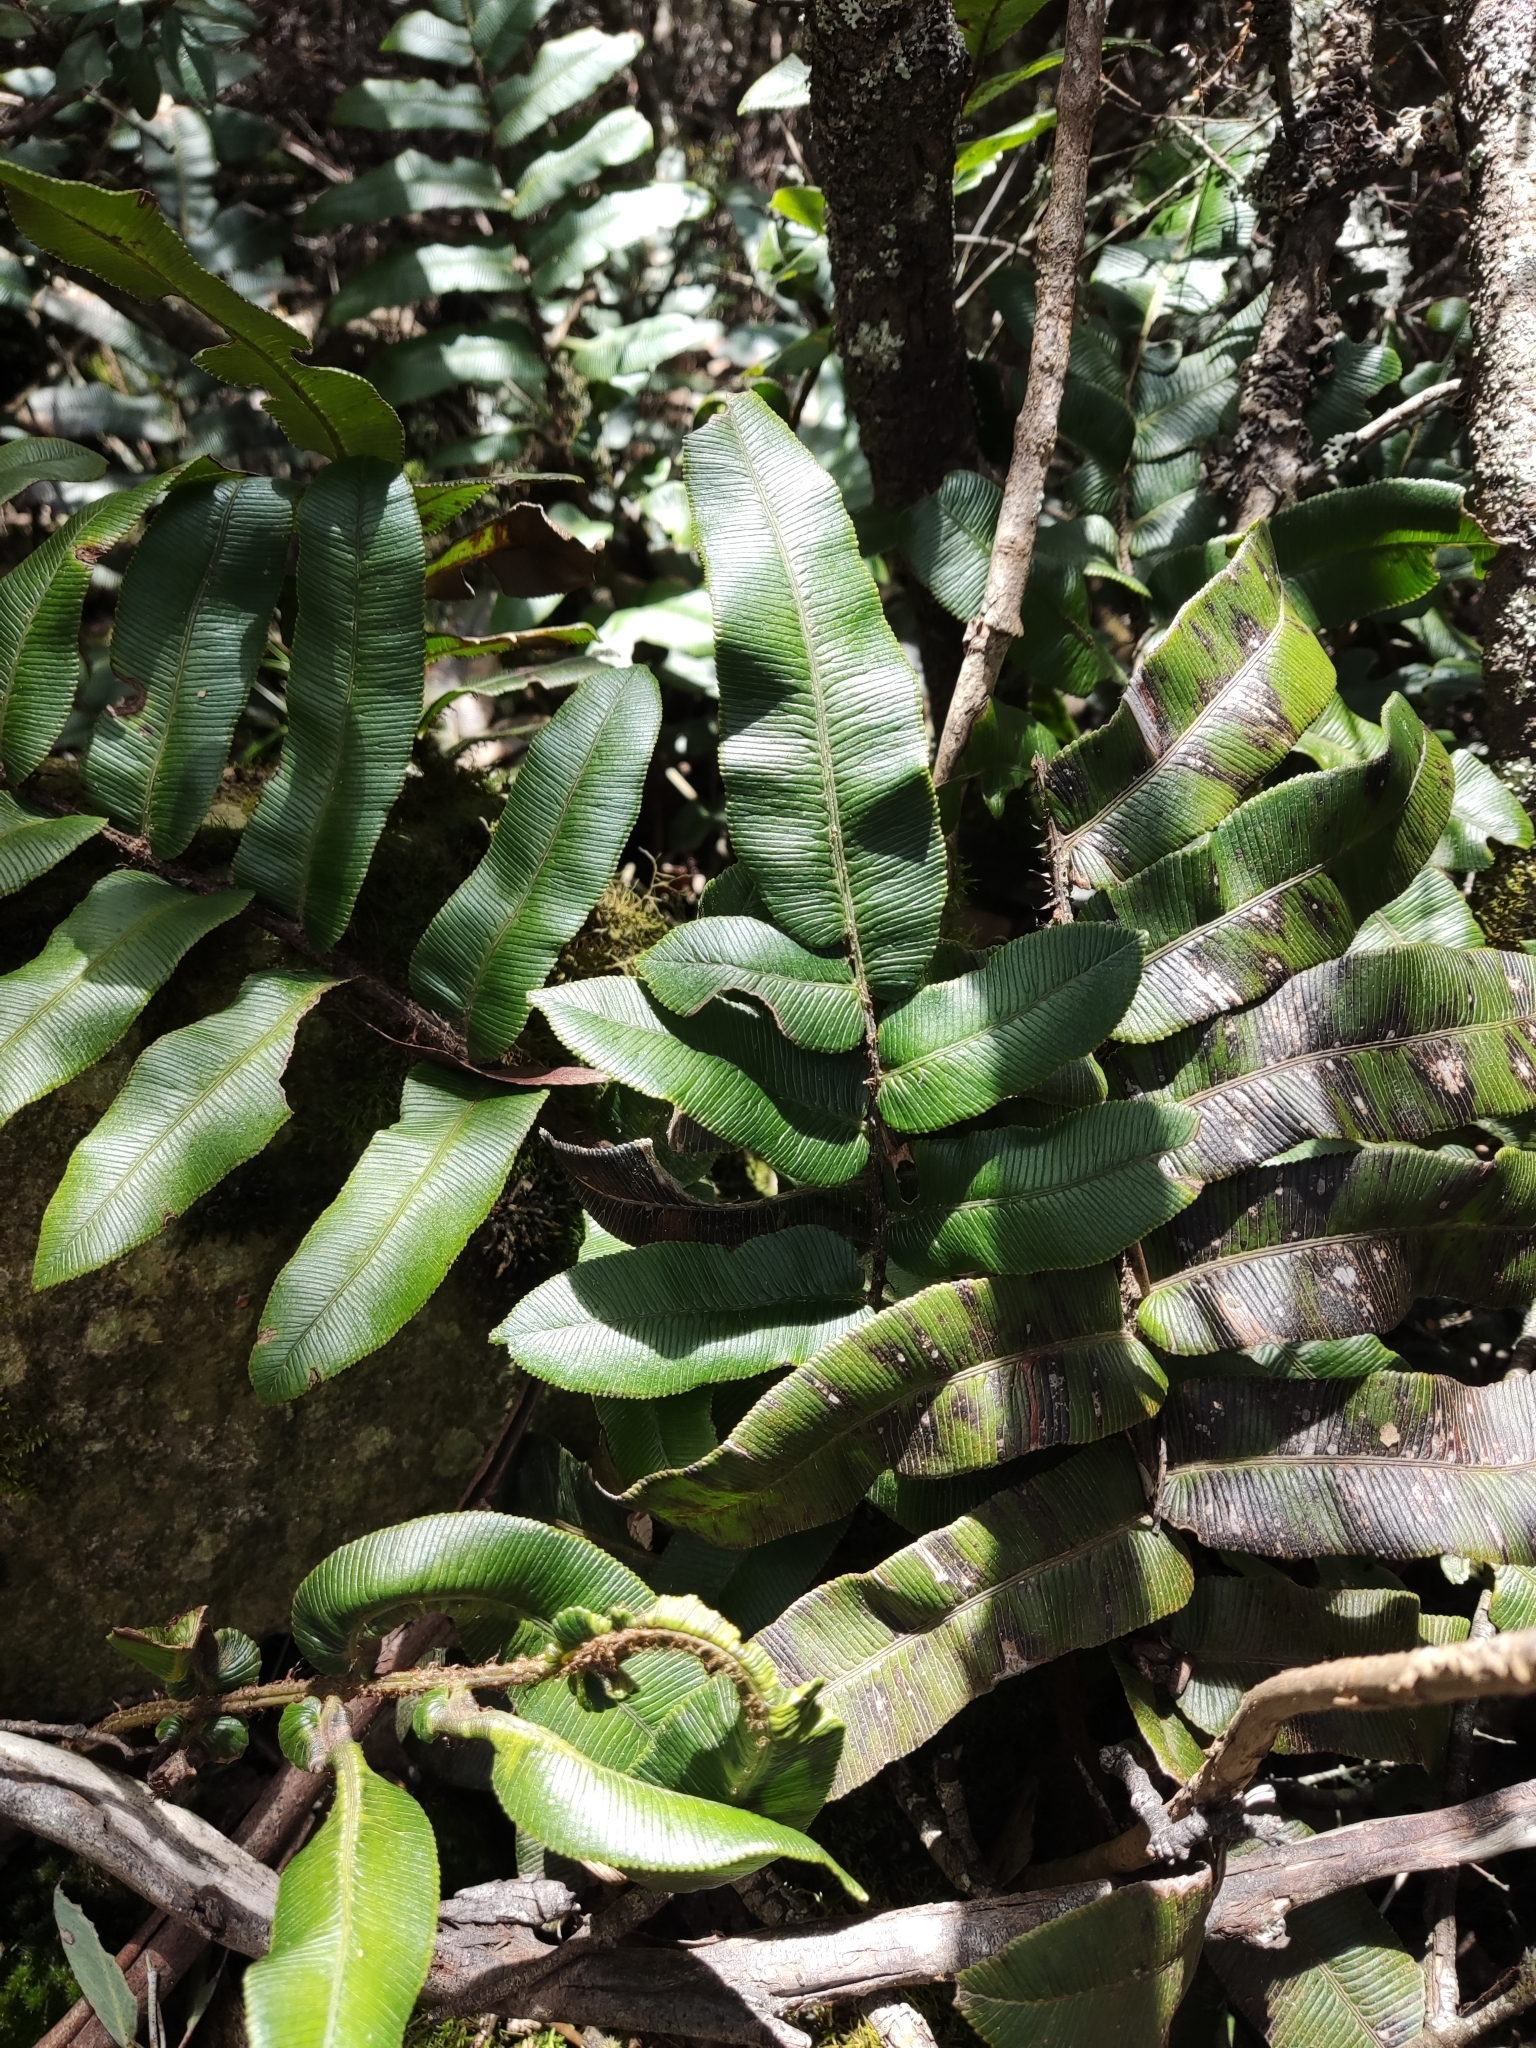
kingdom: Plantae
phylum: Tracheophyta
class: Polypodiopsida
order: Polypodiales
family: Blechnaceae
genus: Parablechnum
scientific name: Parablechnum wattsii
